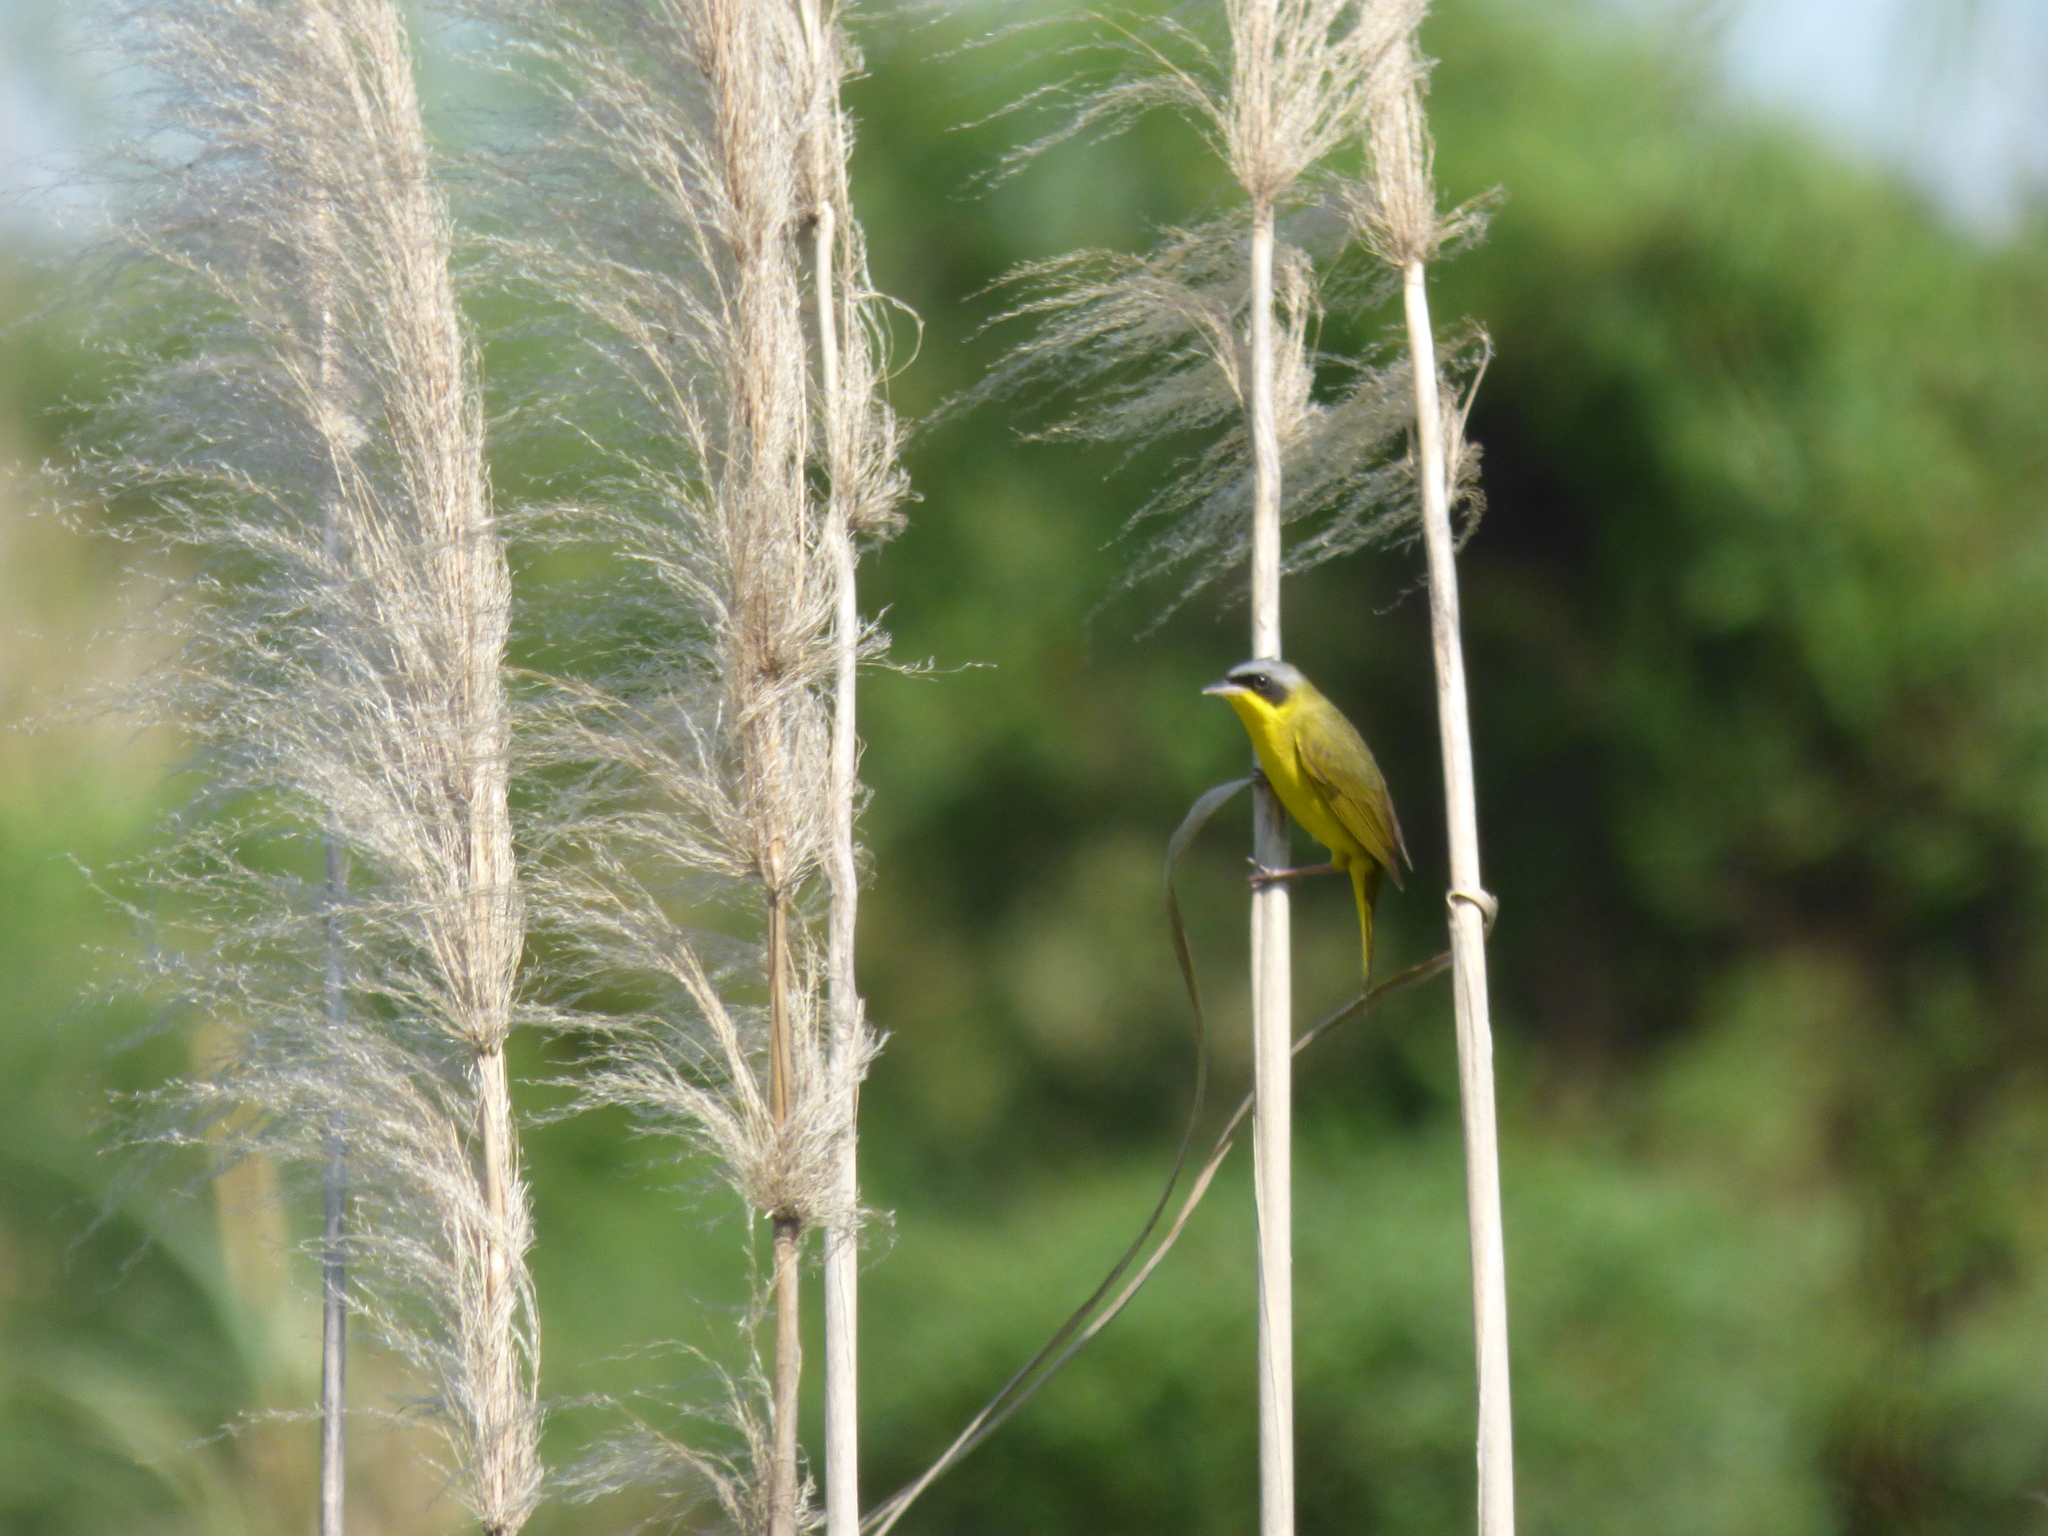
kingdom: Animalia
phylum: Chordata
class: Aves
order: Passeriformes
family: Parulidae
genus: Geothlypis
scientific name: Geothlypis velata
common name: Southern yellowthroat
